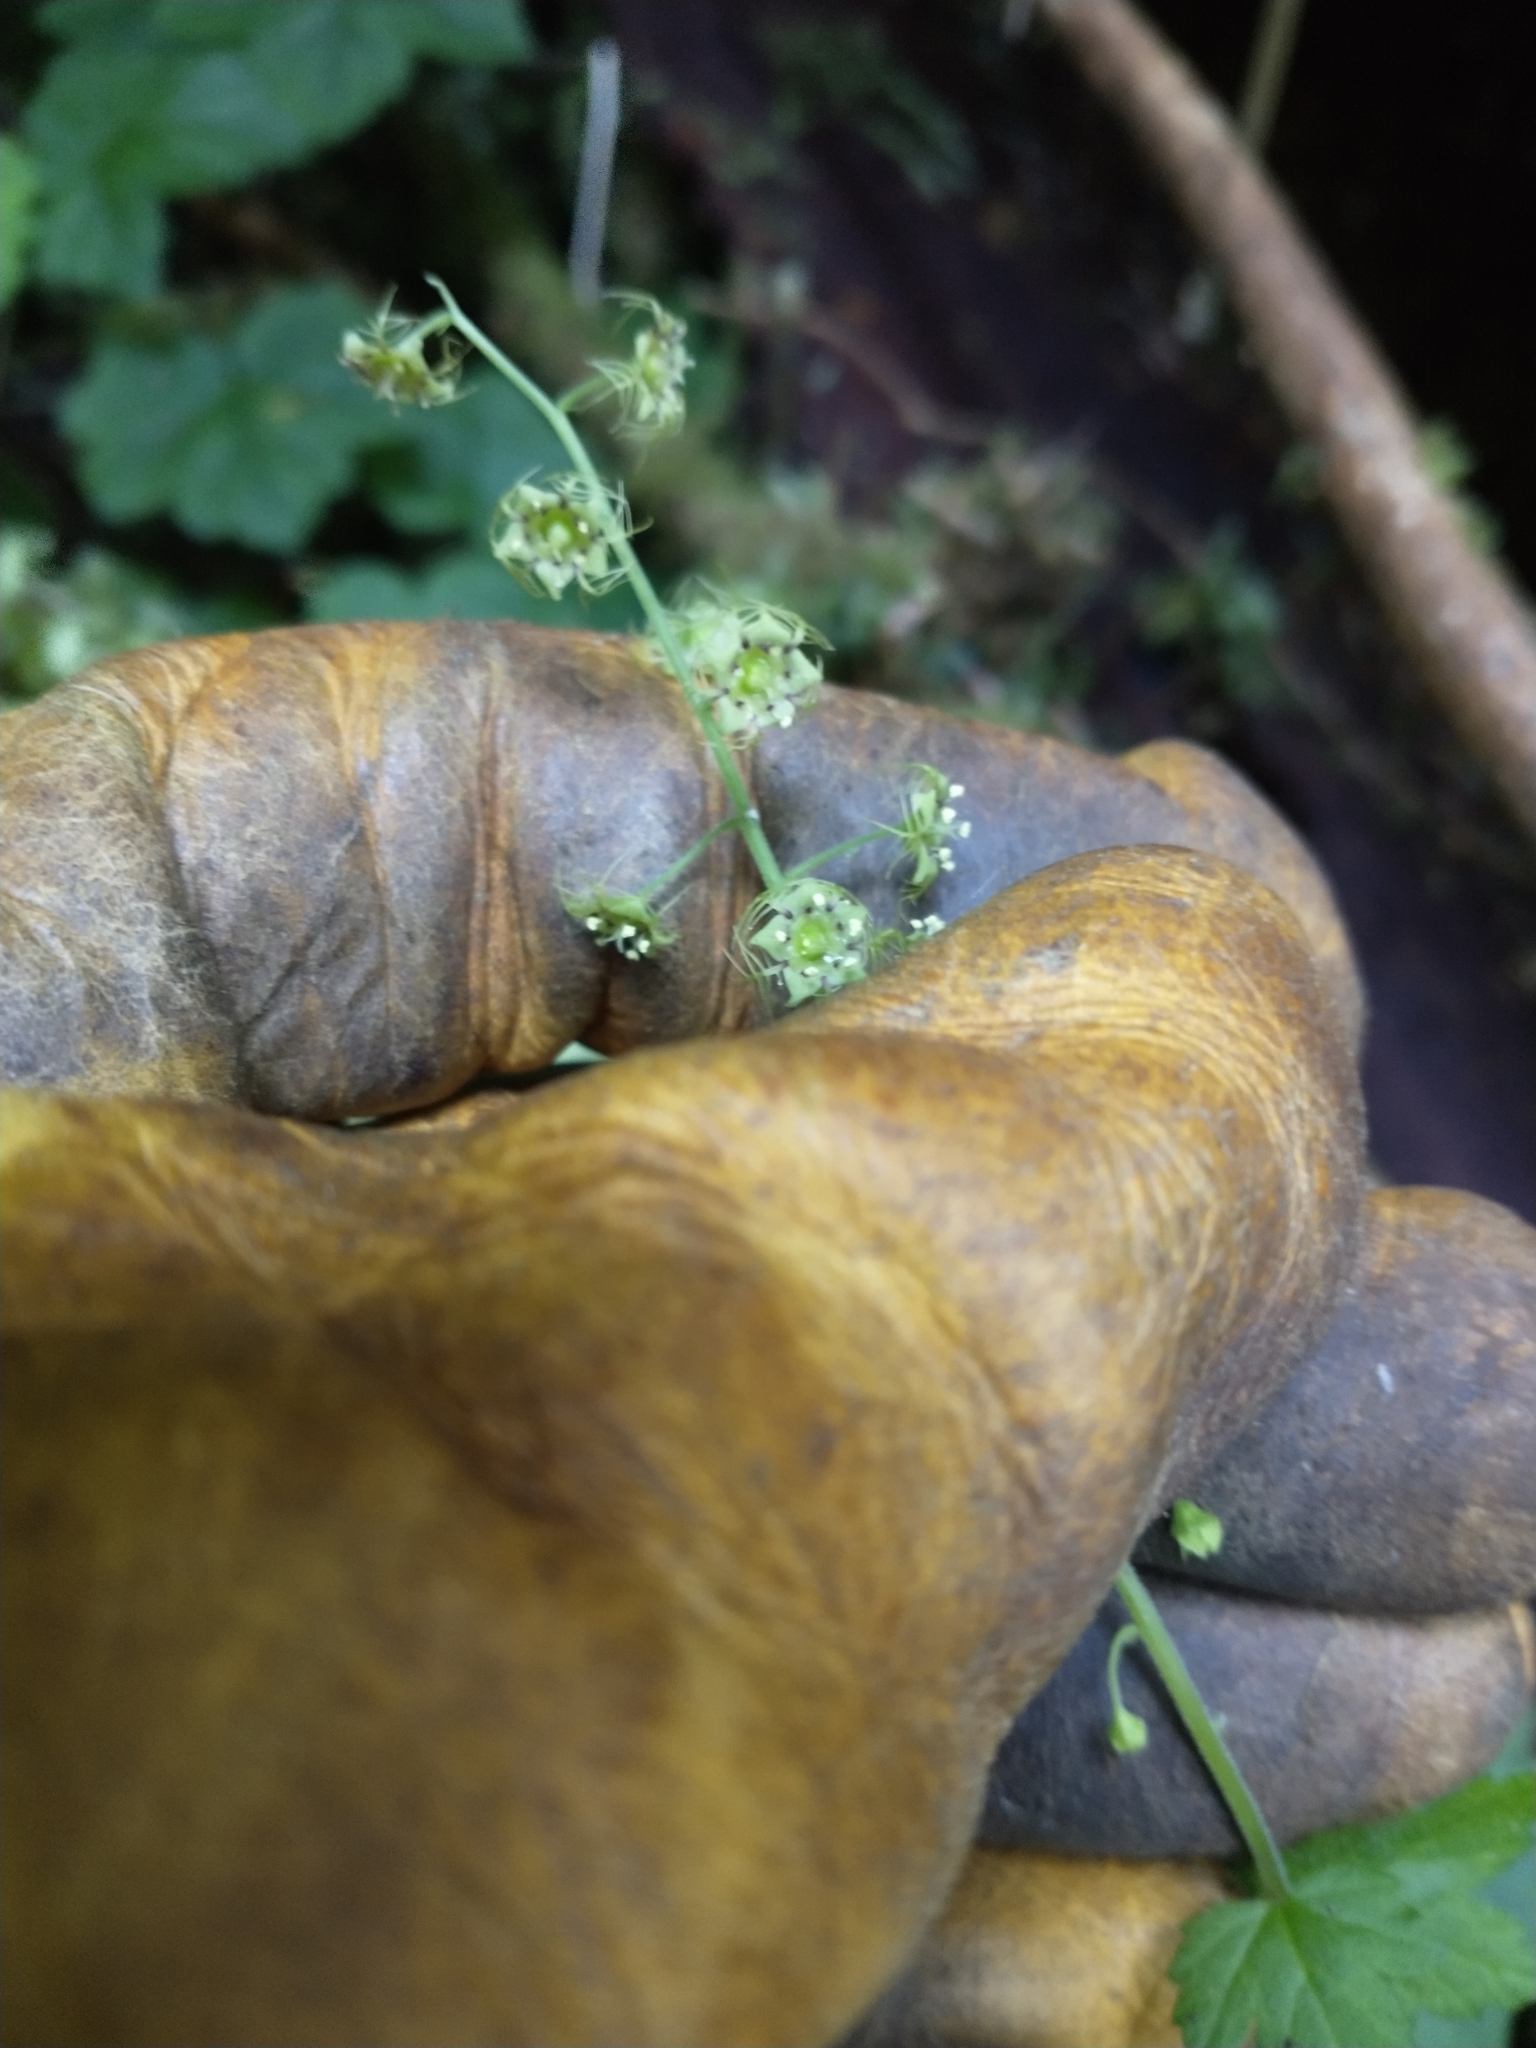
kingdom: Plantae
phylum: Tracheophyta
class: Magnoliopsida
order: Saxifragales
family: Saxifragaceae
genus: Mitellastra
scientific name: Mitellastra caulescens
